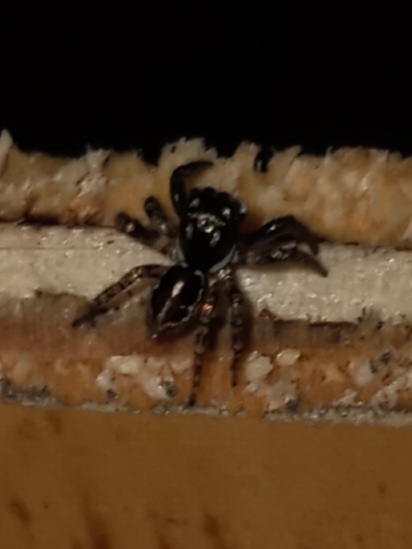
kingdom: Animalia
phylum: Arthropoda
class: Arachnida
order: Araneae
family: Salticidae
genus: Anasaitis
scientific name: Anasaitis canosa
